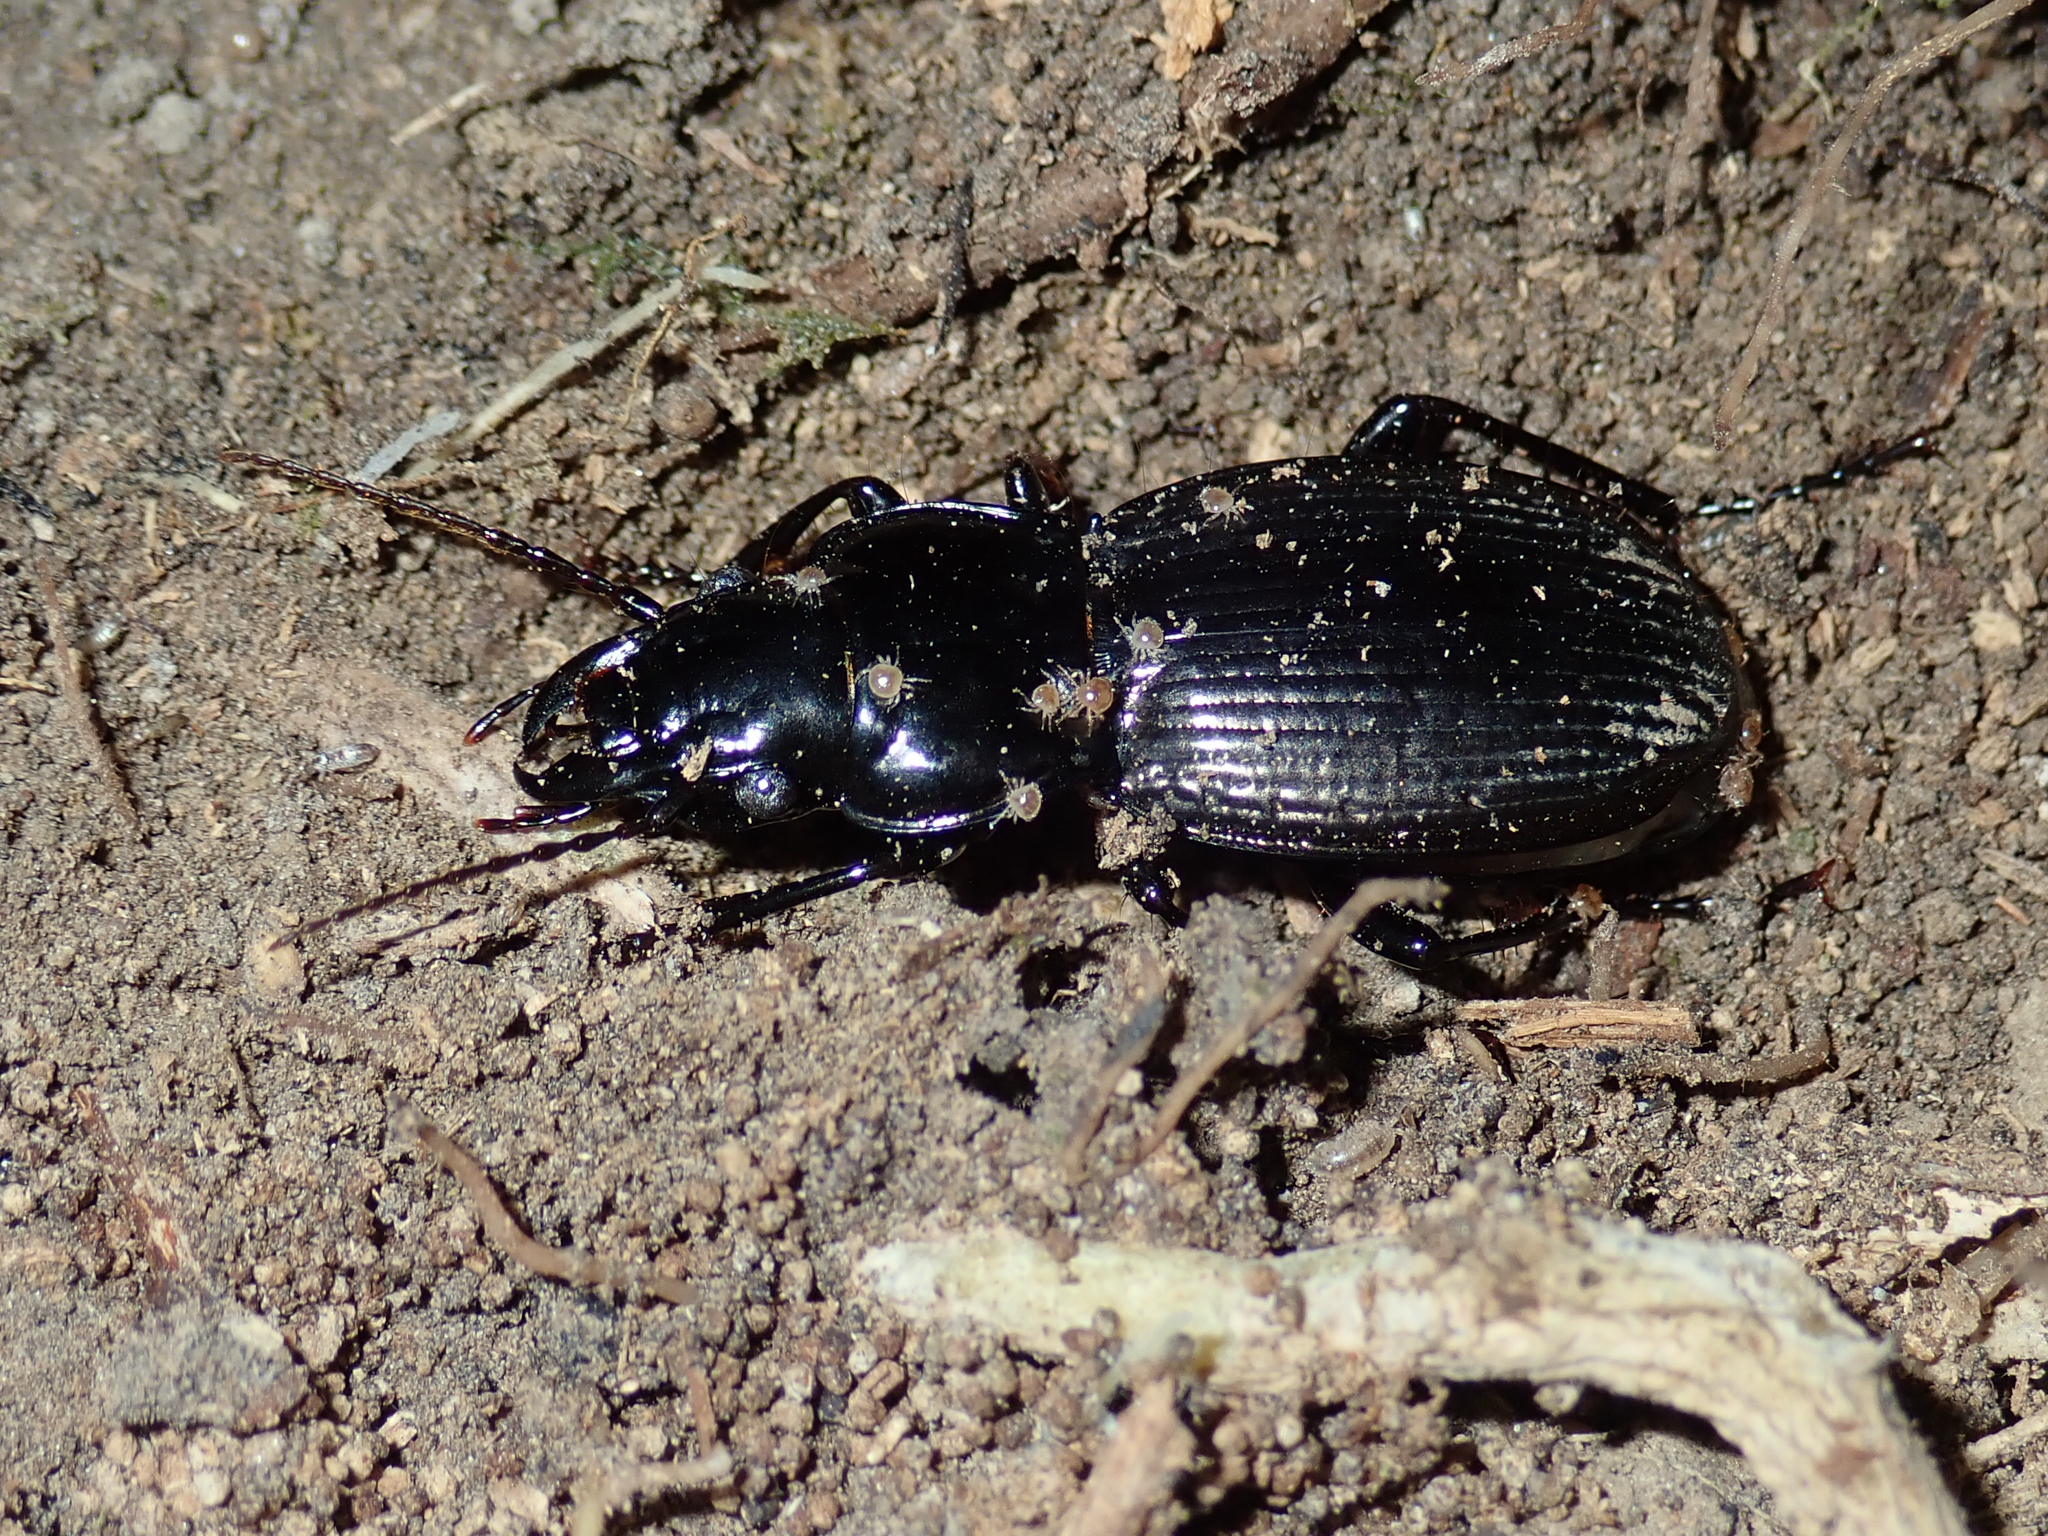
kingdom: Animalia
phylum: Arthropoda
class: Insecta
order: Coleoptera
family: Carabidae
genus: Megadromus
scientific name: Megadromus guerinii
